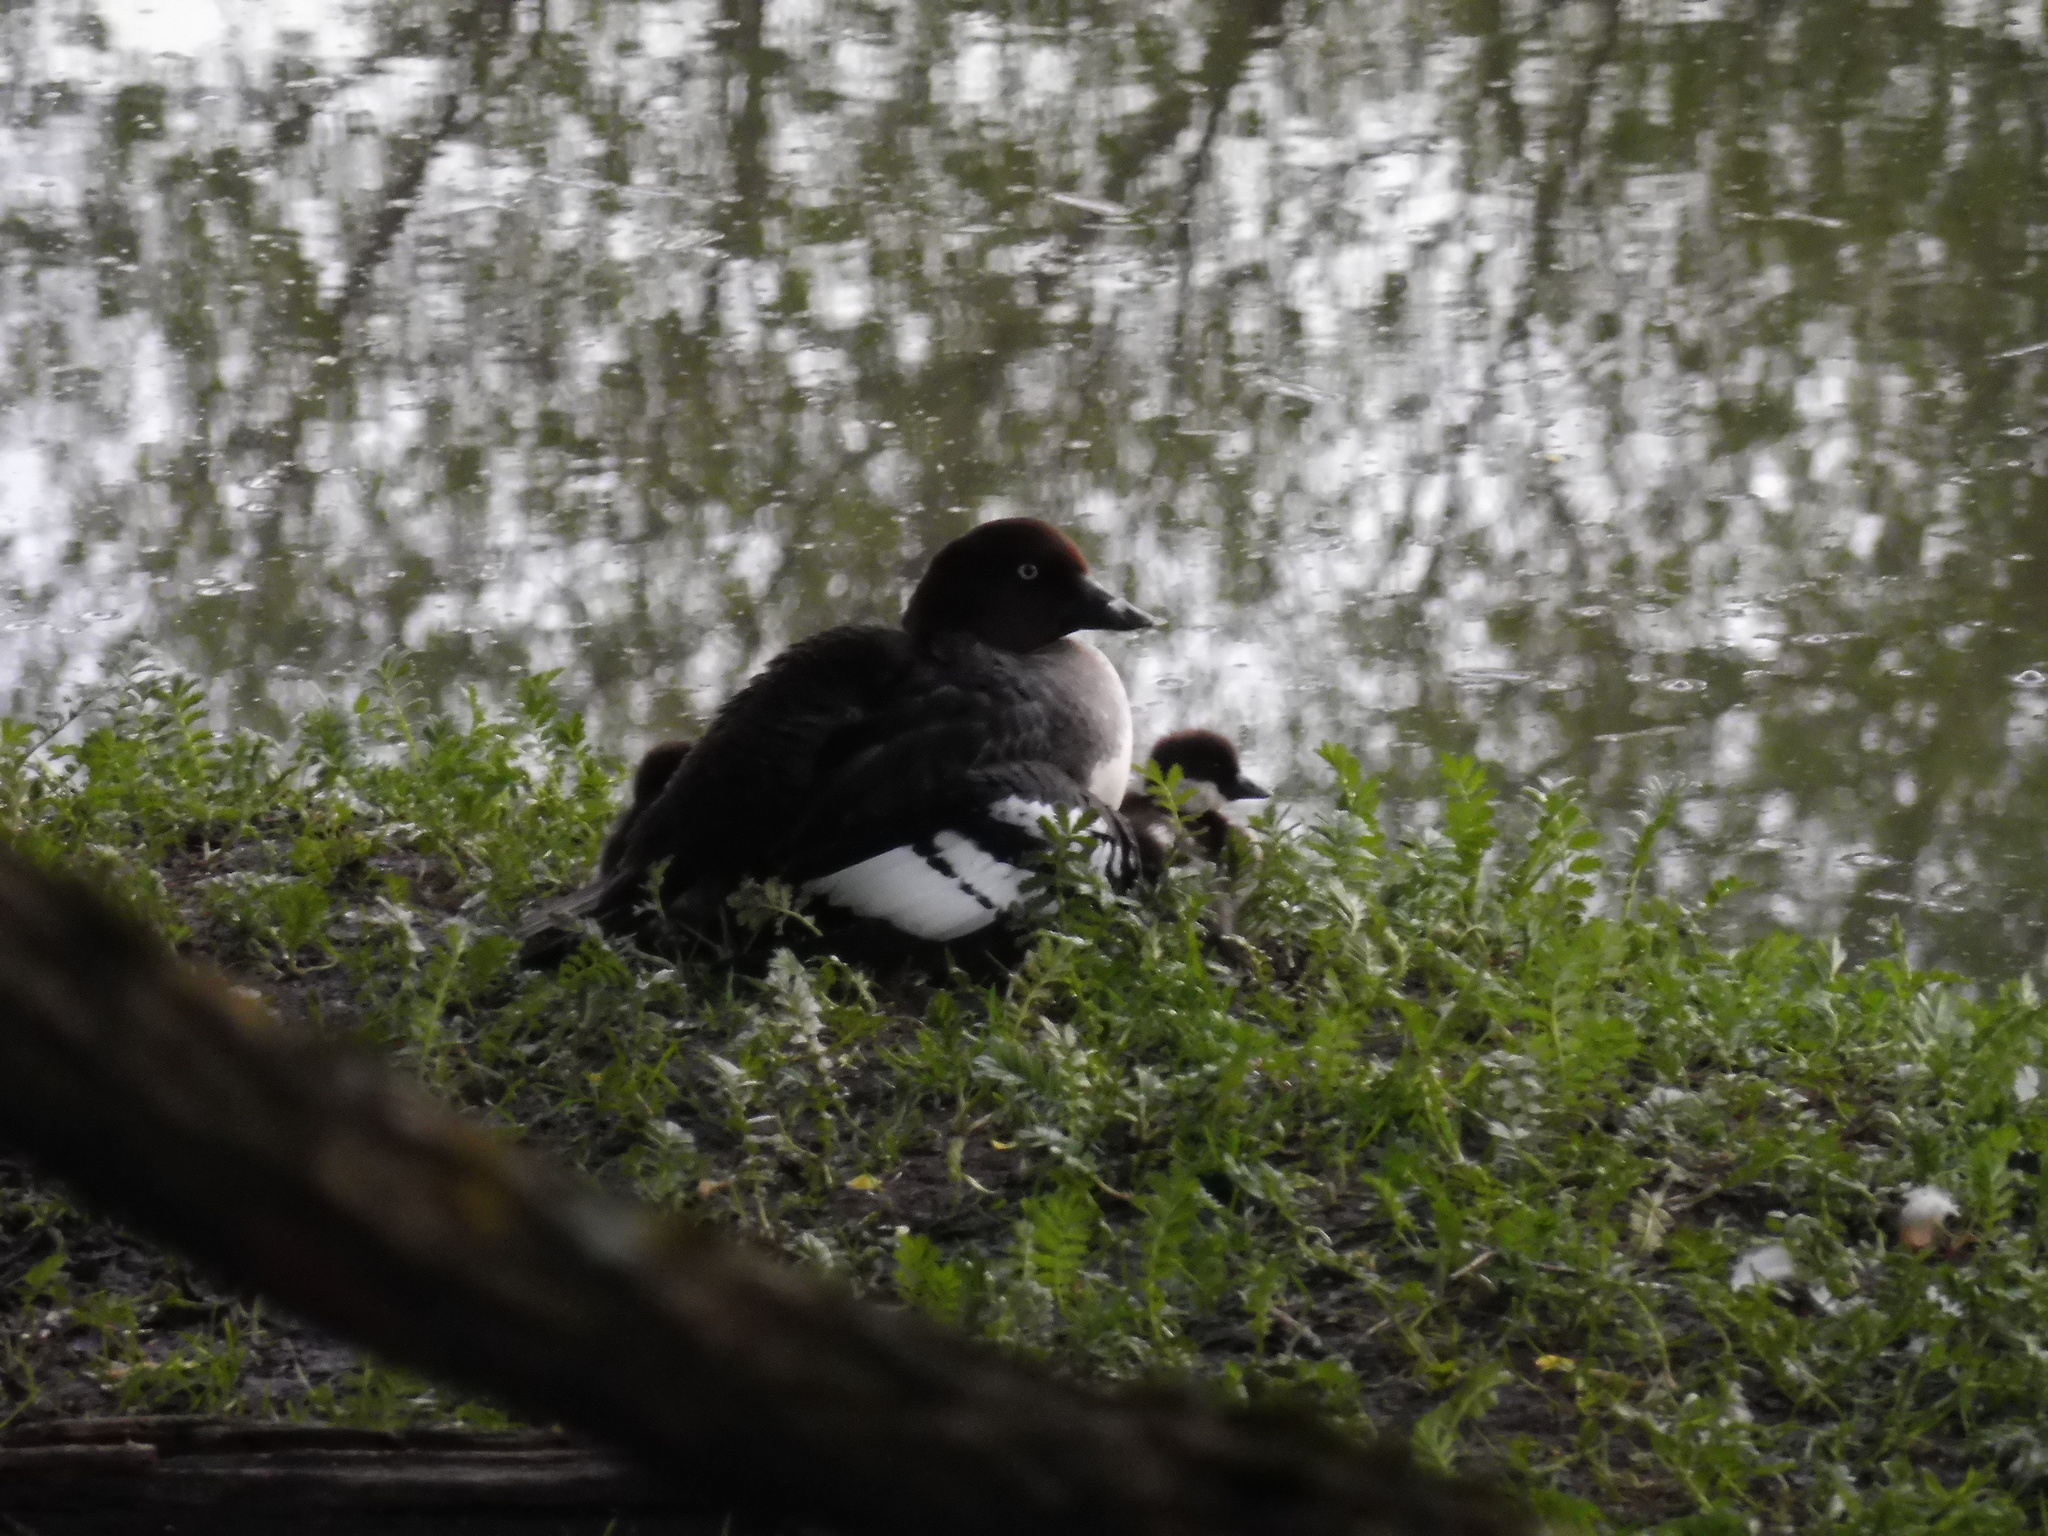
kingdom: Animalia
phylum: Chordata
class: Aves
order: Anseriformes
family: Anatidae
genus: Bucephala
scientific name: Bucephala clangula
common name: Common goldeneye
